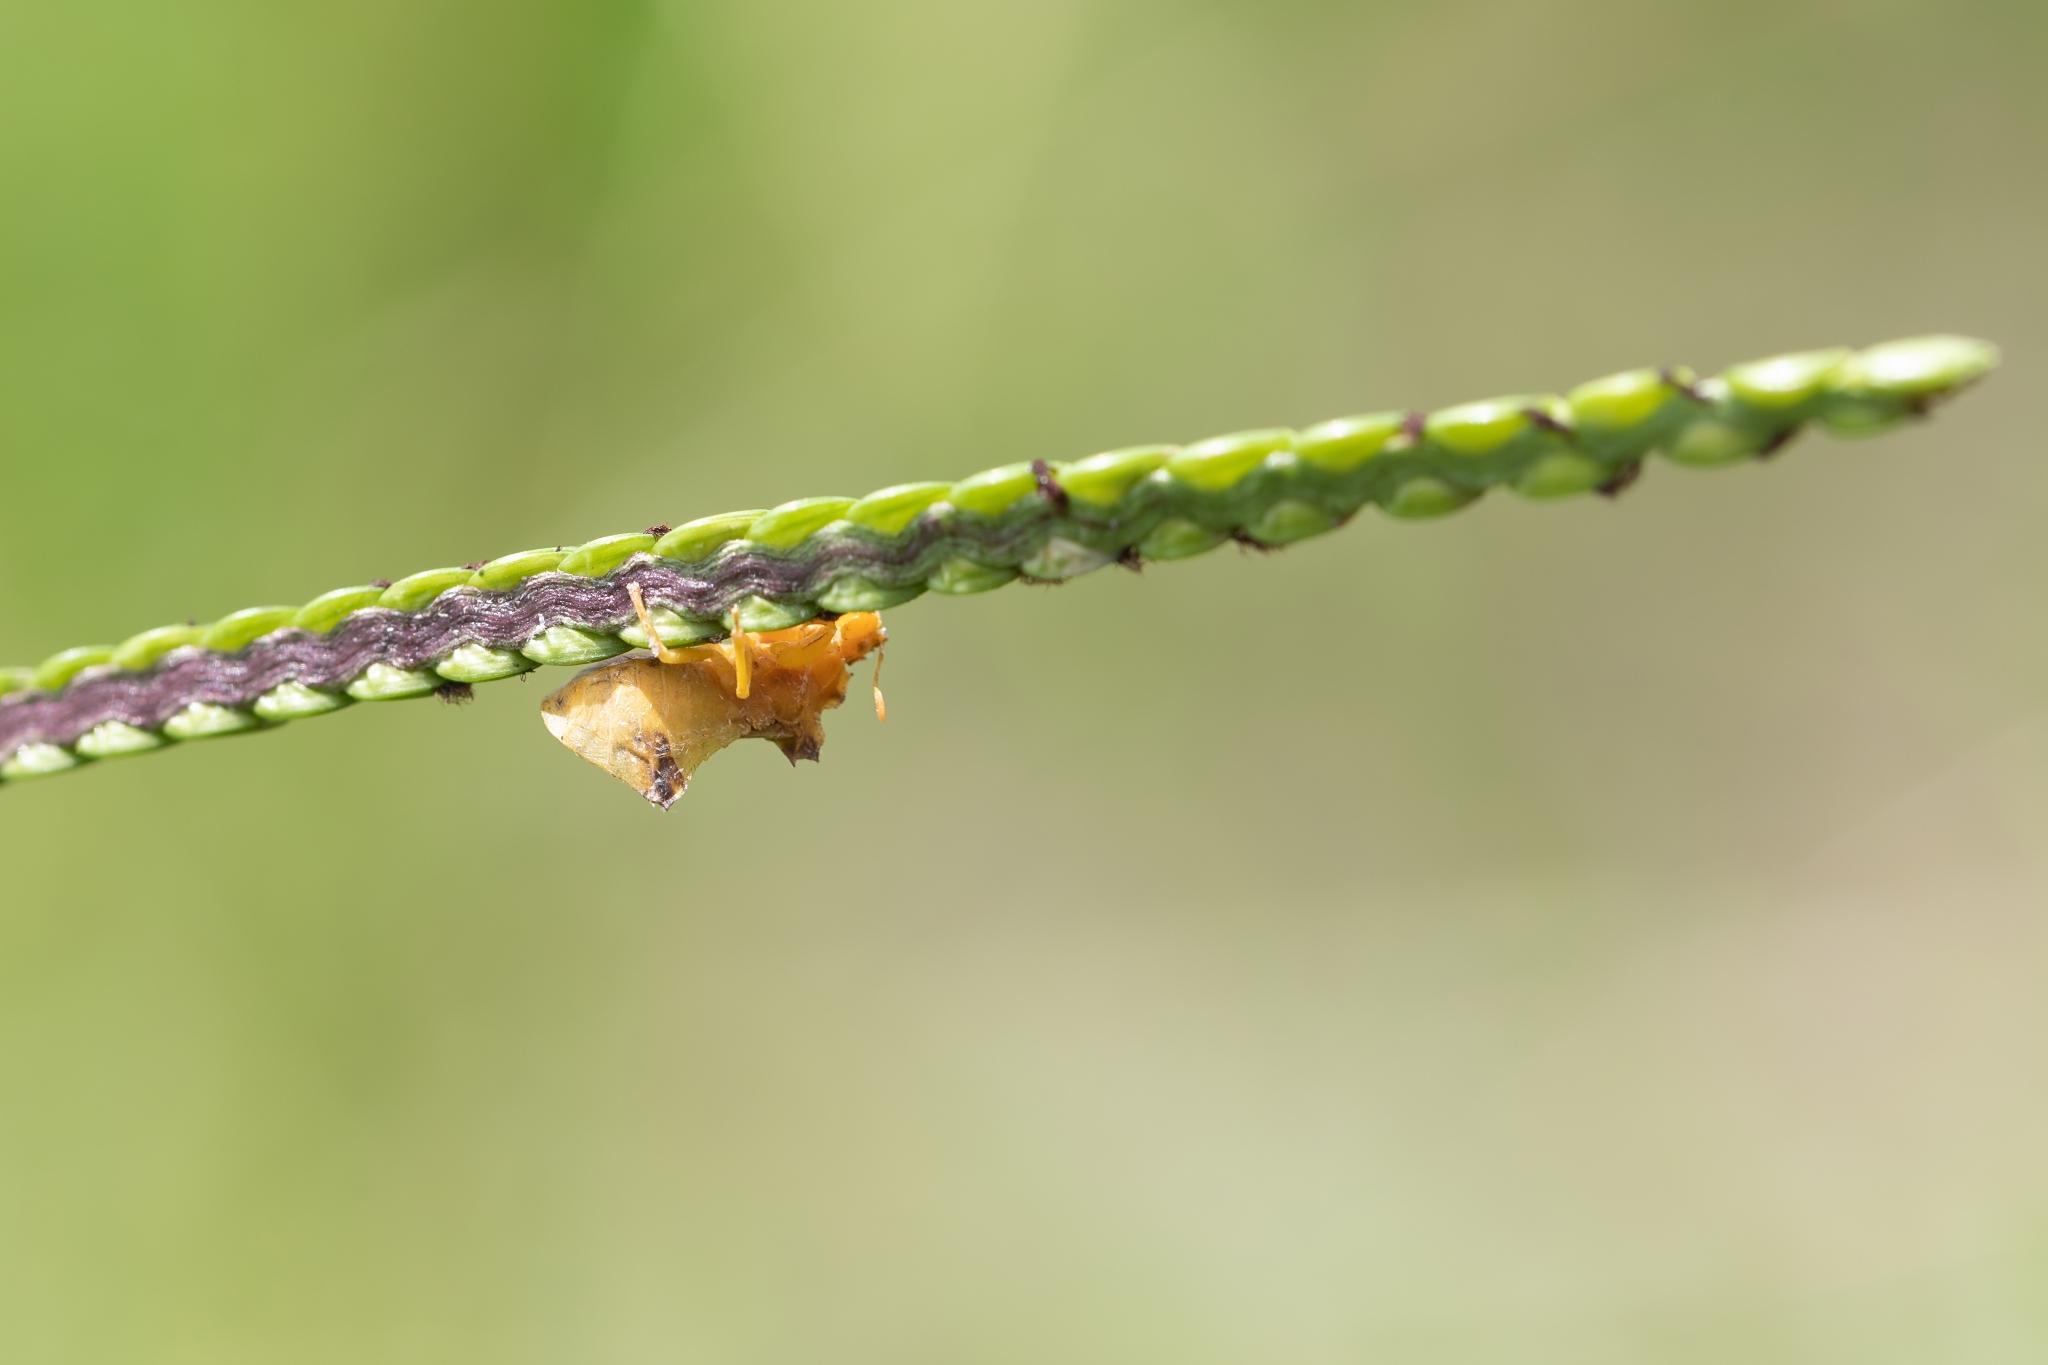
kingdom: Animalia
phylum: Arthropoda
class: Insecta
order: Hemiptera
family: Reduviidae
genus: Phymata
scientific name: Phymata
